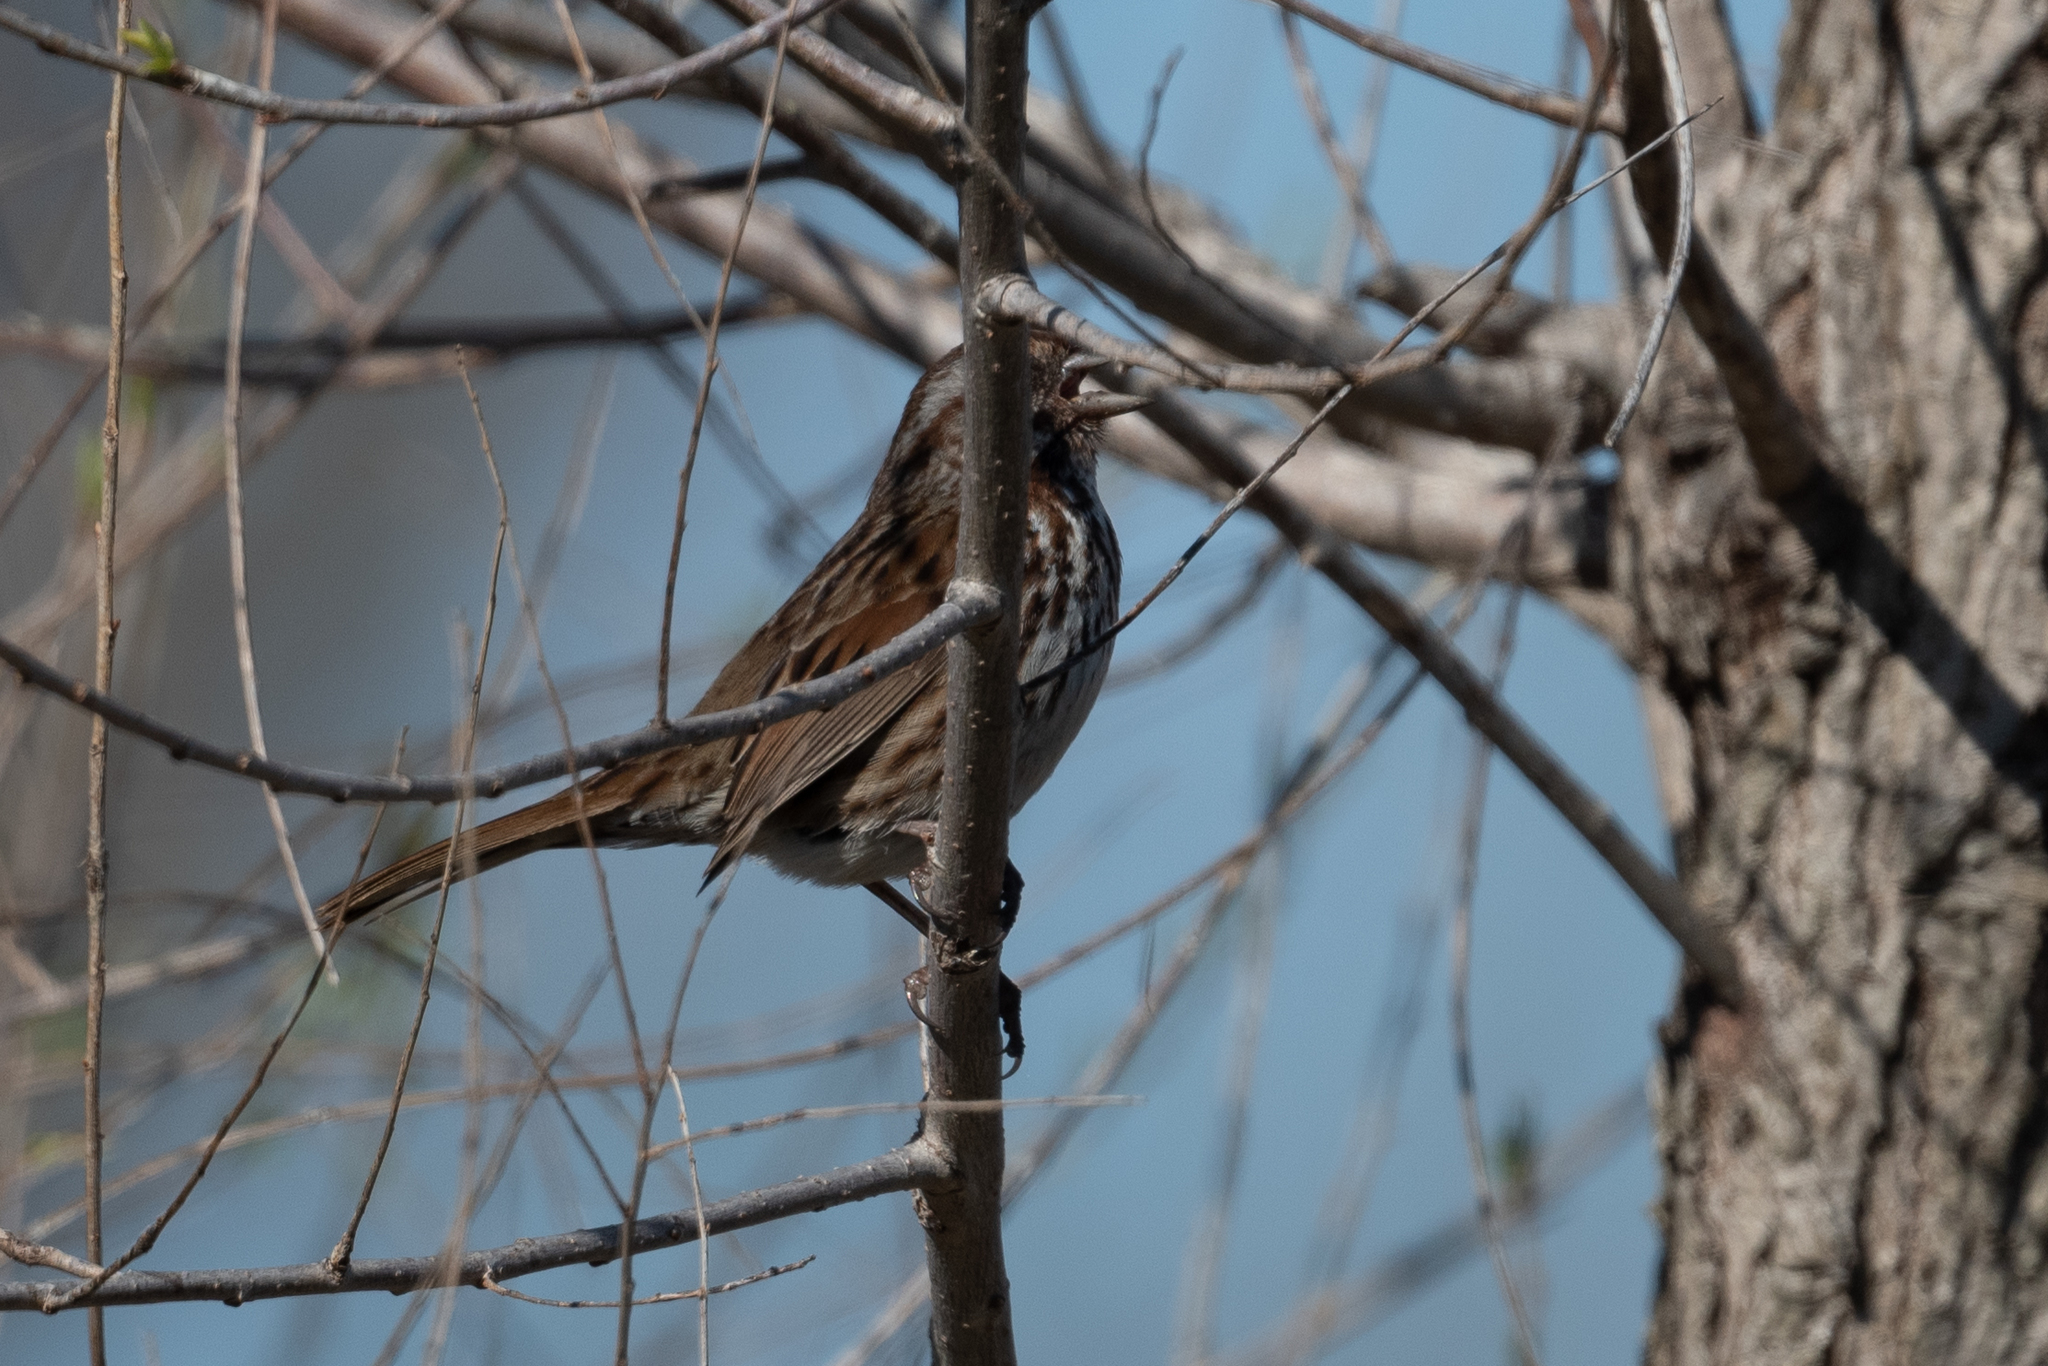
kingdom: Animalia
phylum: Chordata
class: Aves
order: Passeriformes
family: Passerellidae
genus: Melospiza
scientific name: Melospiza melodia
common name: Song sparrow
